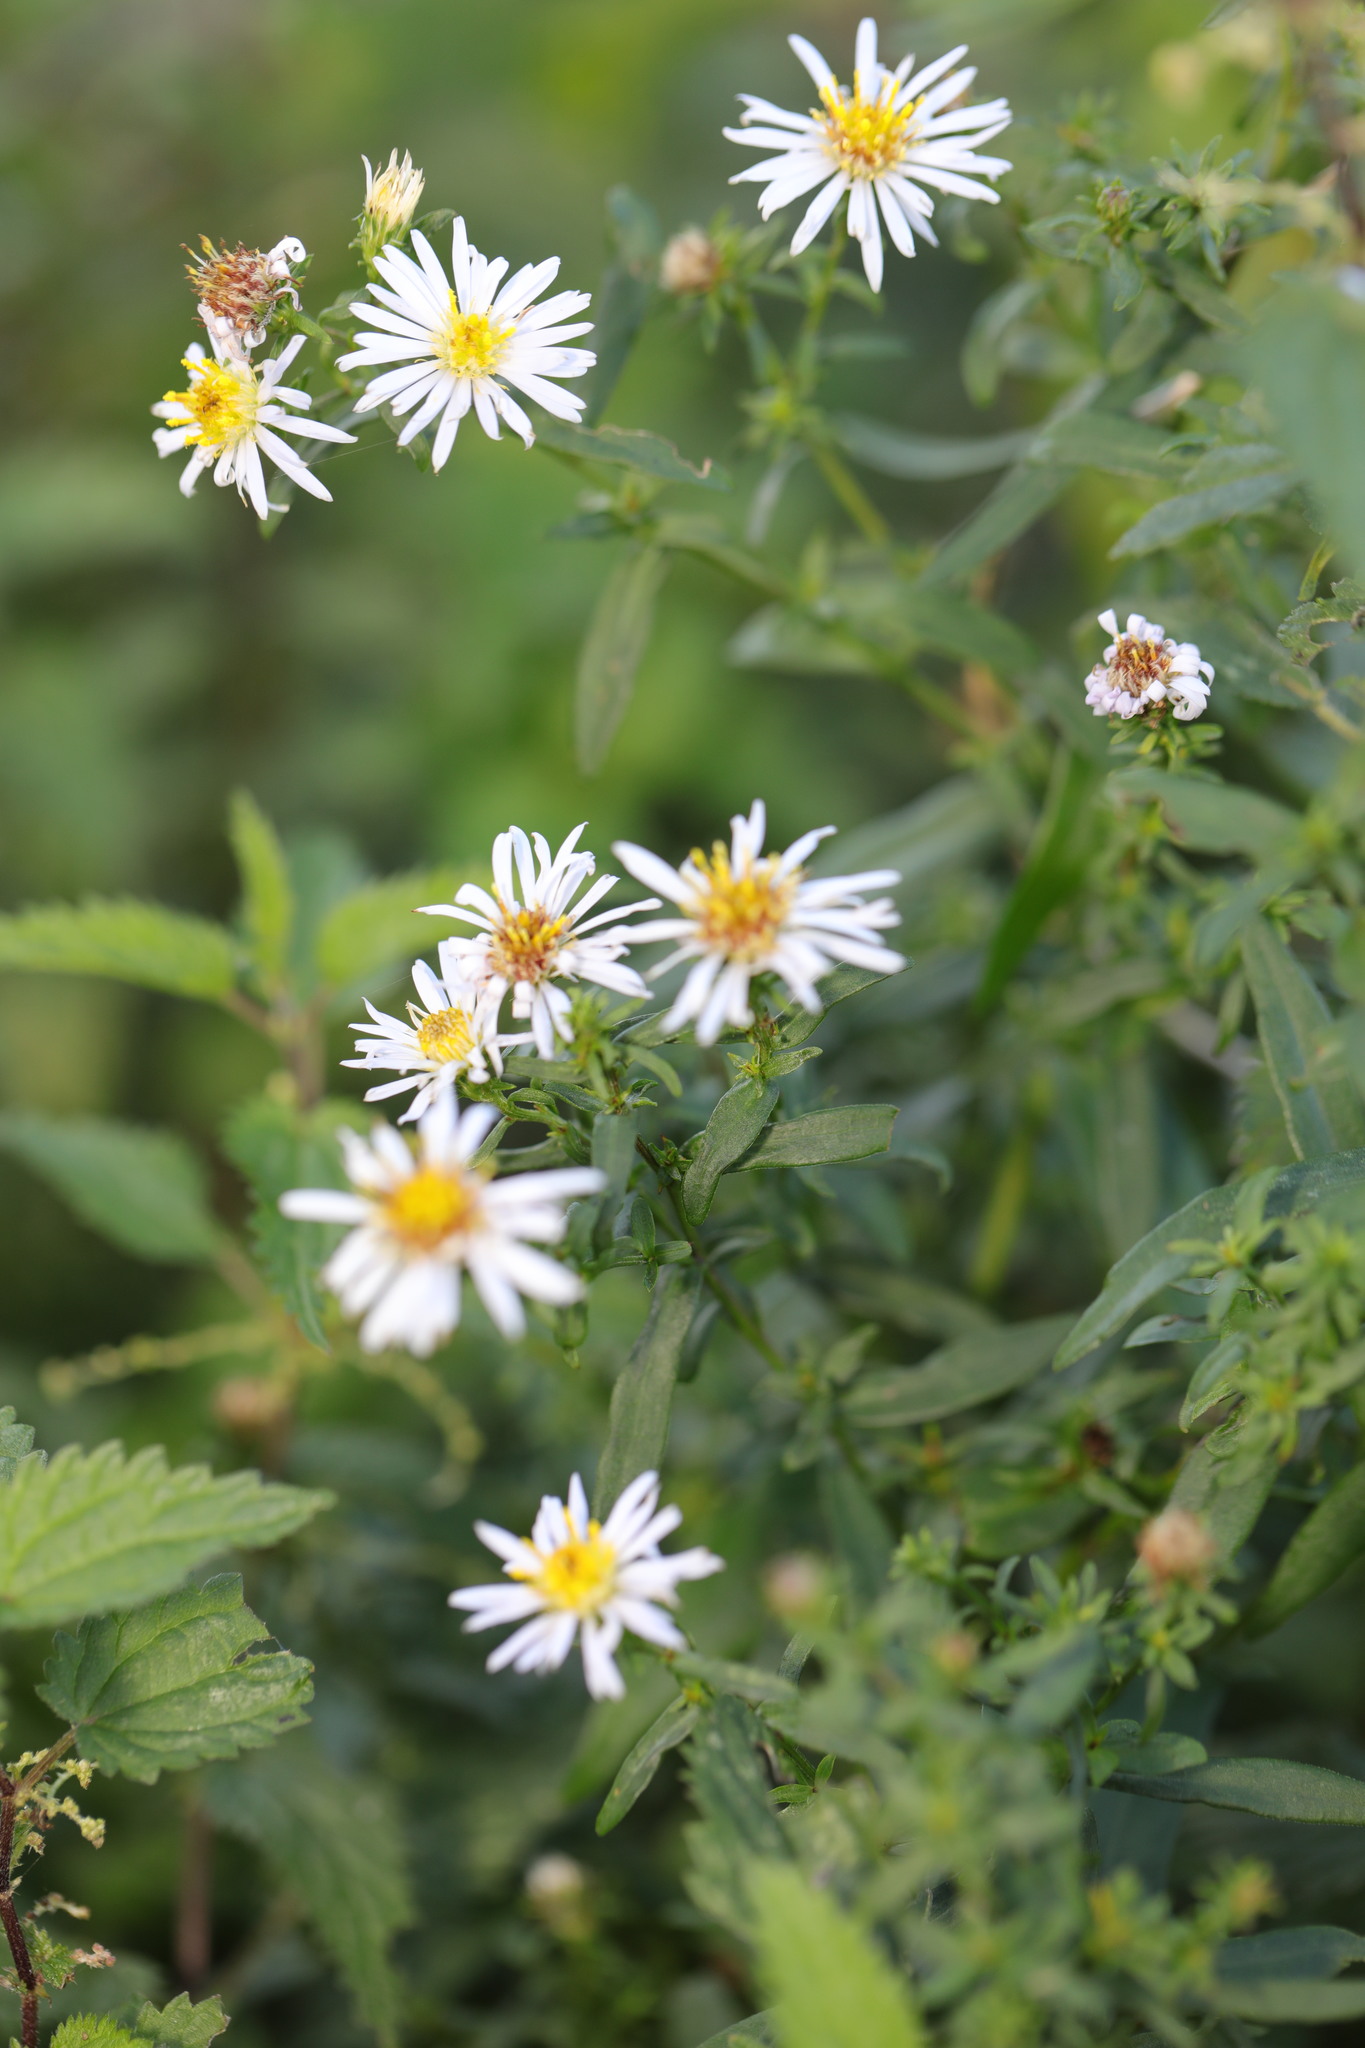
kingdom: Plantae
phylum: Tracheophyta
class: Magnoliopsida
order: Asterales
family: Asteraceae
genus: Symphyotrichum
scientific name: Symphyotrichum
